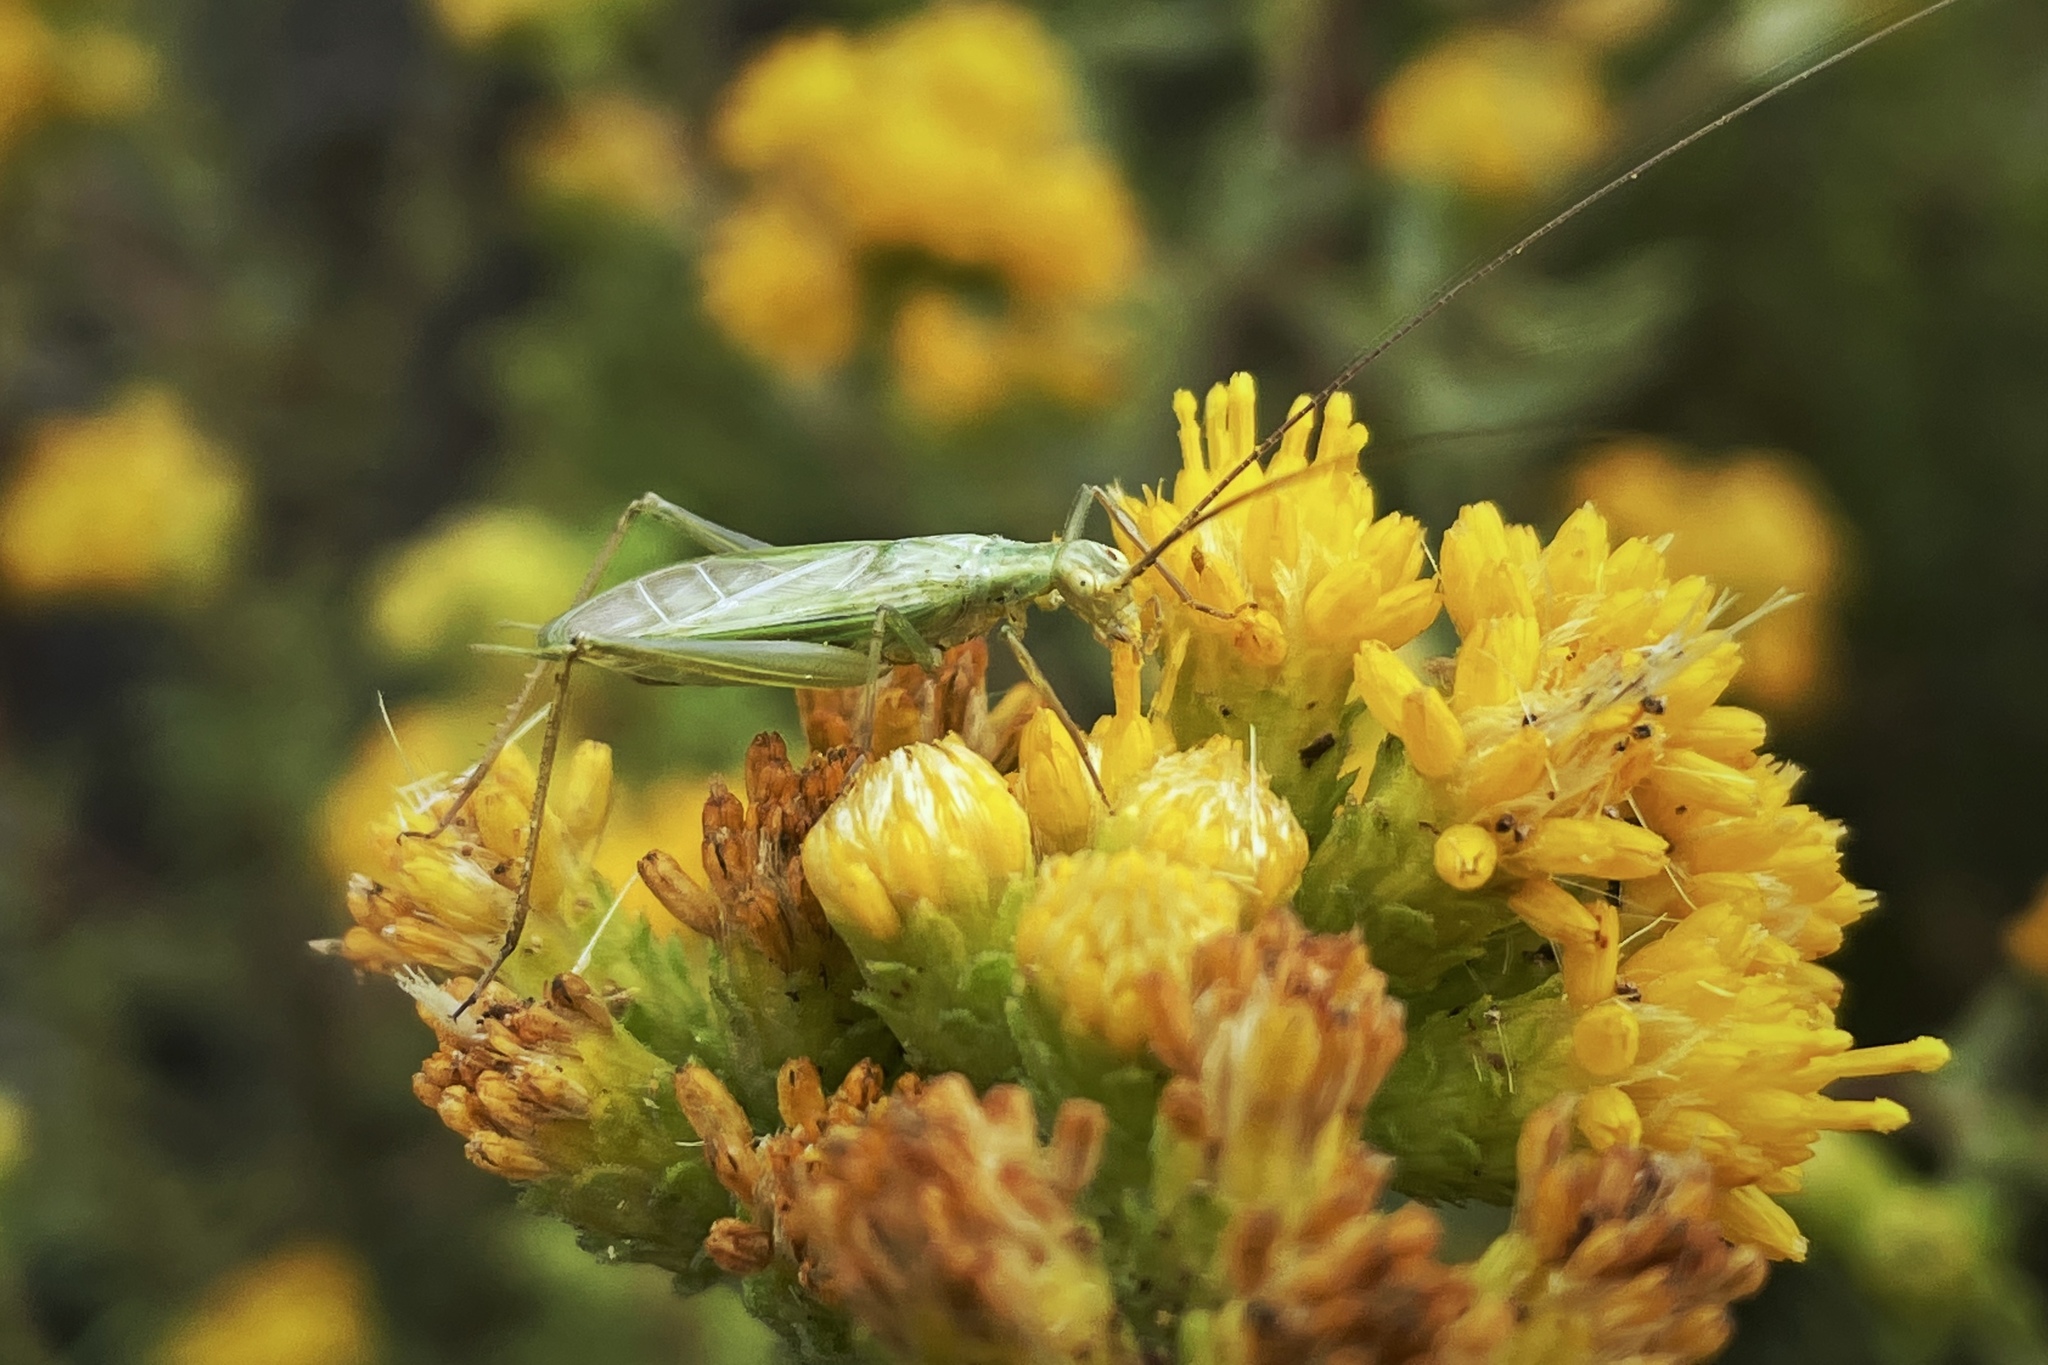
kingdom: Animalia
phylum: Arthropoda
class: Insecta
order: Orthoptera
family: Gryllidae
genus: Oecanthus
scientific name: Oecanthus argentinus
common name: Prairie tree cricket
